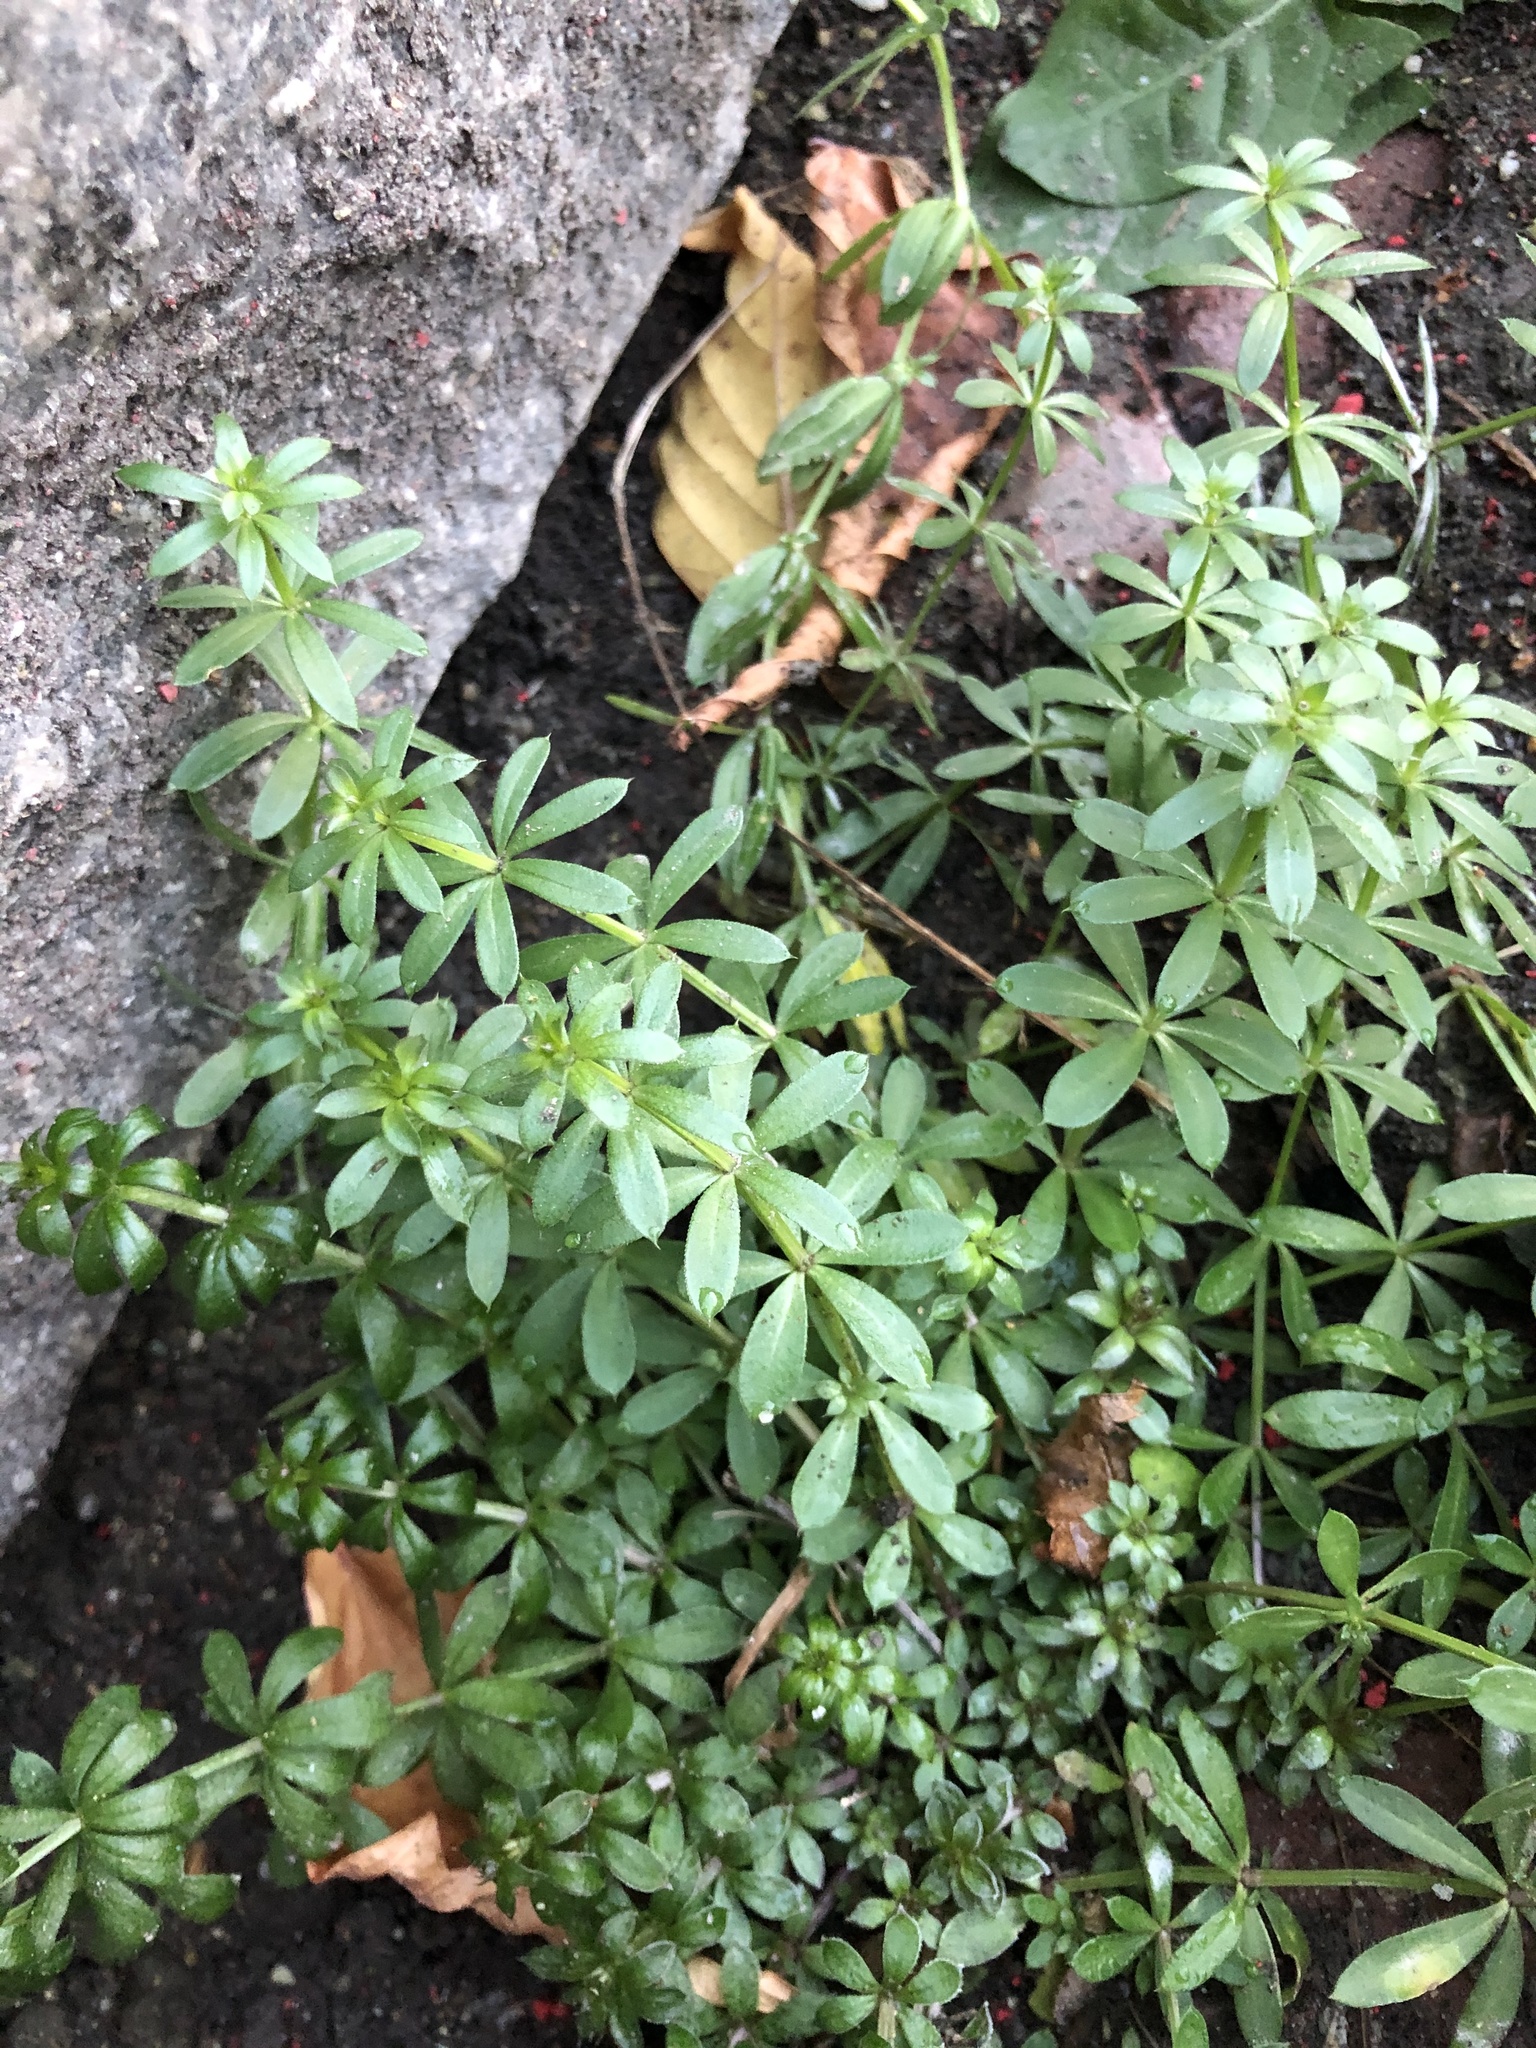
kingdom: Plantae
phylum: Tracheophyta
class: Magnoliopsida
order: Gentianales
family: Rubiaceae
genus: Galium
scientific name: Galium mollugo
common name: Hedge bedstraw
